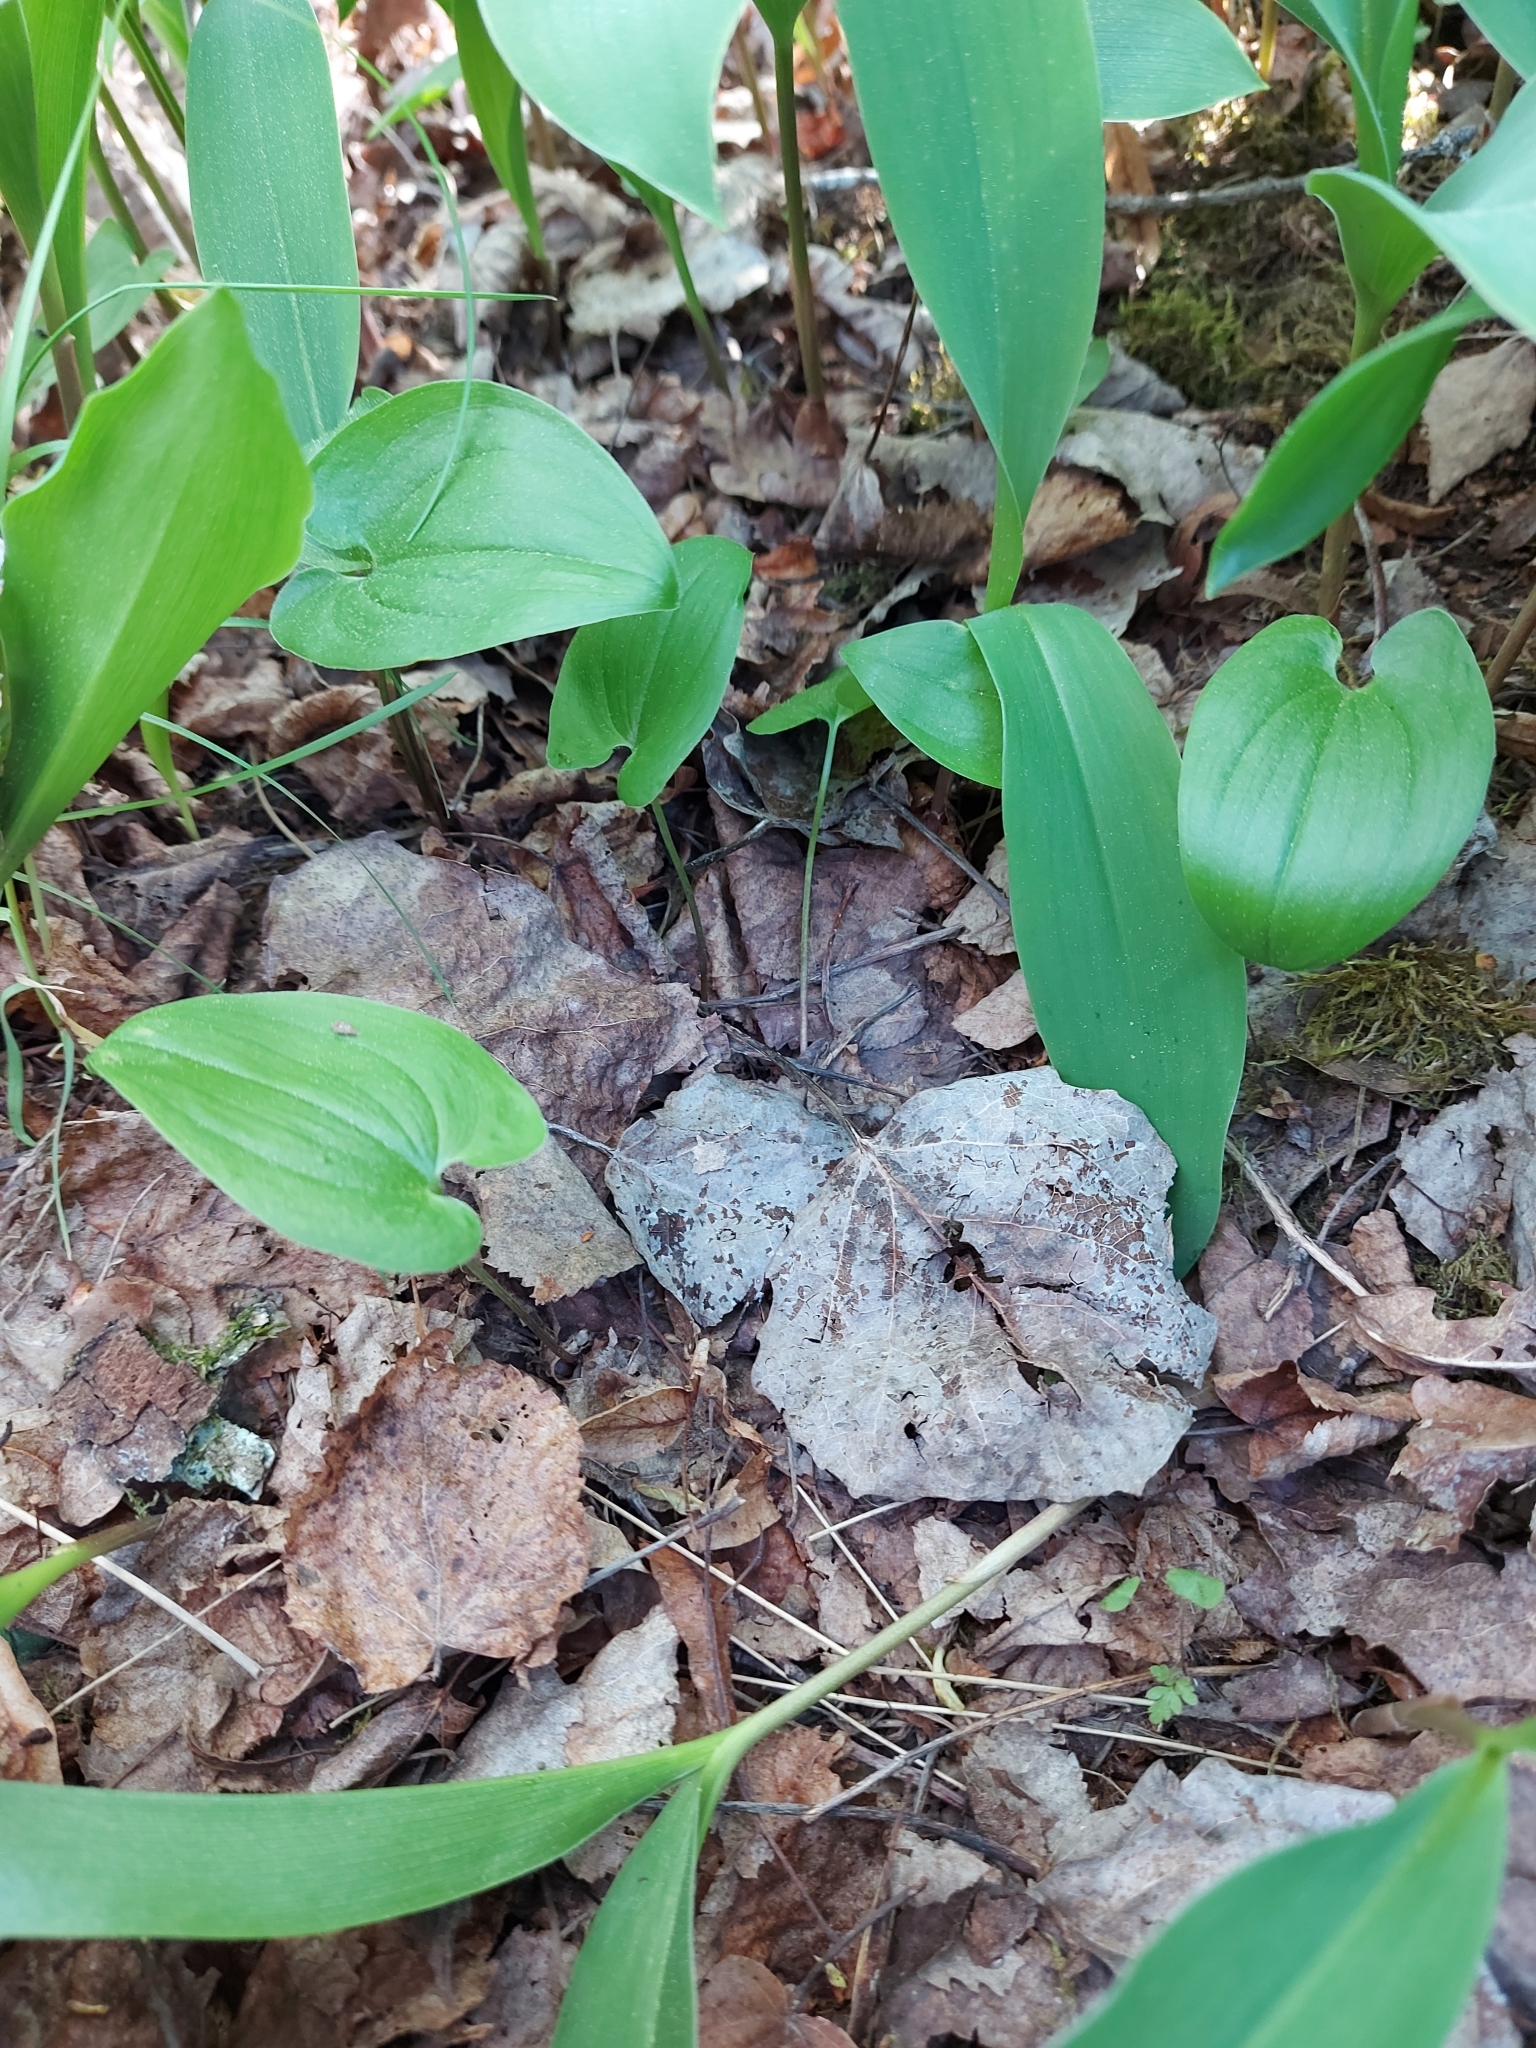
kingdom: Plantae
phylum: Tracheophyta
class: Liliopsida
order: Asparagales
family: Asparagaceae
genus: Maianthemum
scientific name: Maianthemum bifolium
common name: May lily
